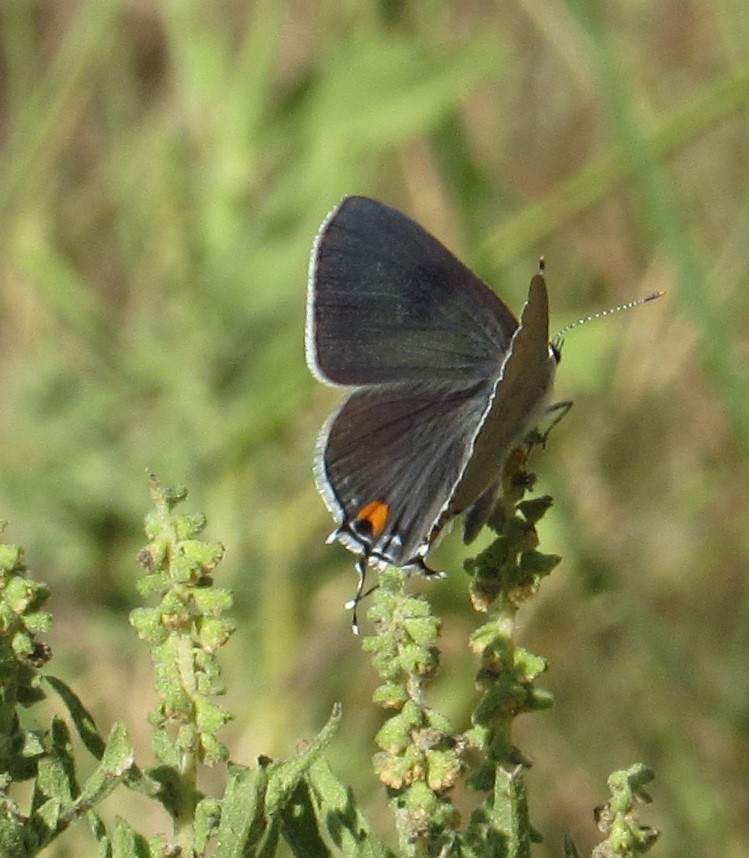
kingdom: Animalia
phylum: Arthropoda
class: Insecta
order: Lepidoptera
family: Lycaenidae
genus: Strymon
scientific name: Strymon melinus
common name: Gray hairstreak
